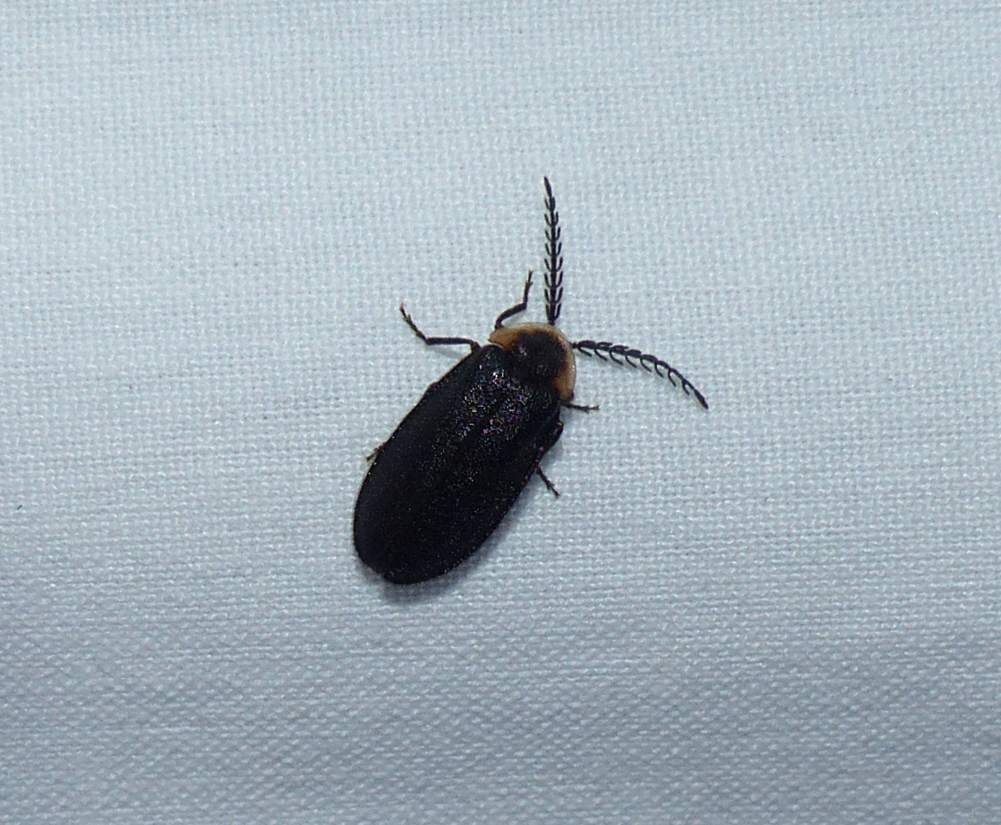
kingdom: Animalia
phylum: Arthropoda
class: Insecta
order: Coleoptera
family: Lampyridae
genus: Pollaclasis
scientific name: Pollaclasis bifaria
